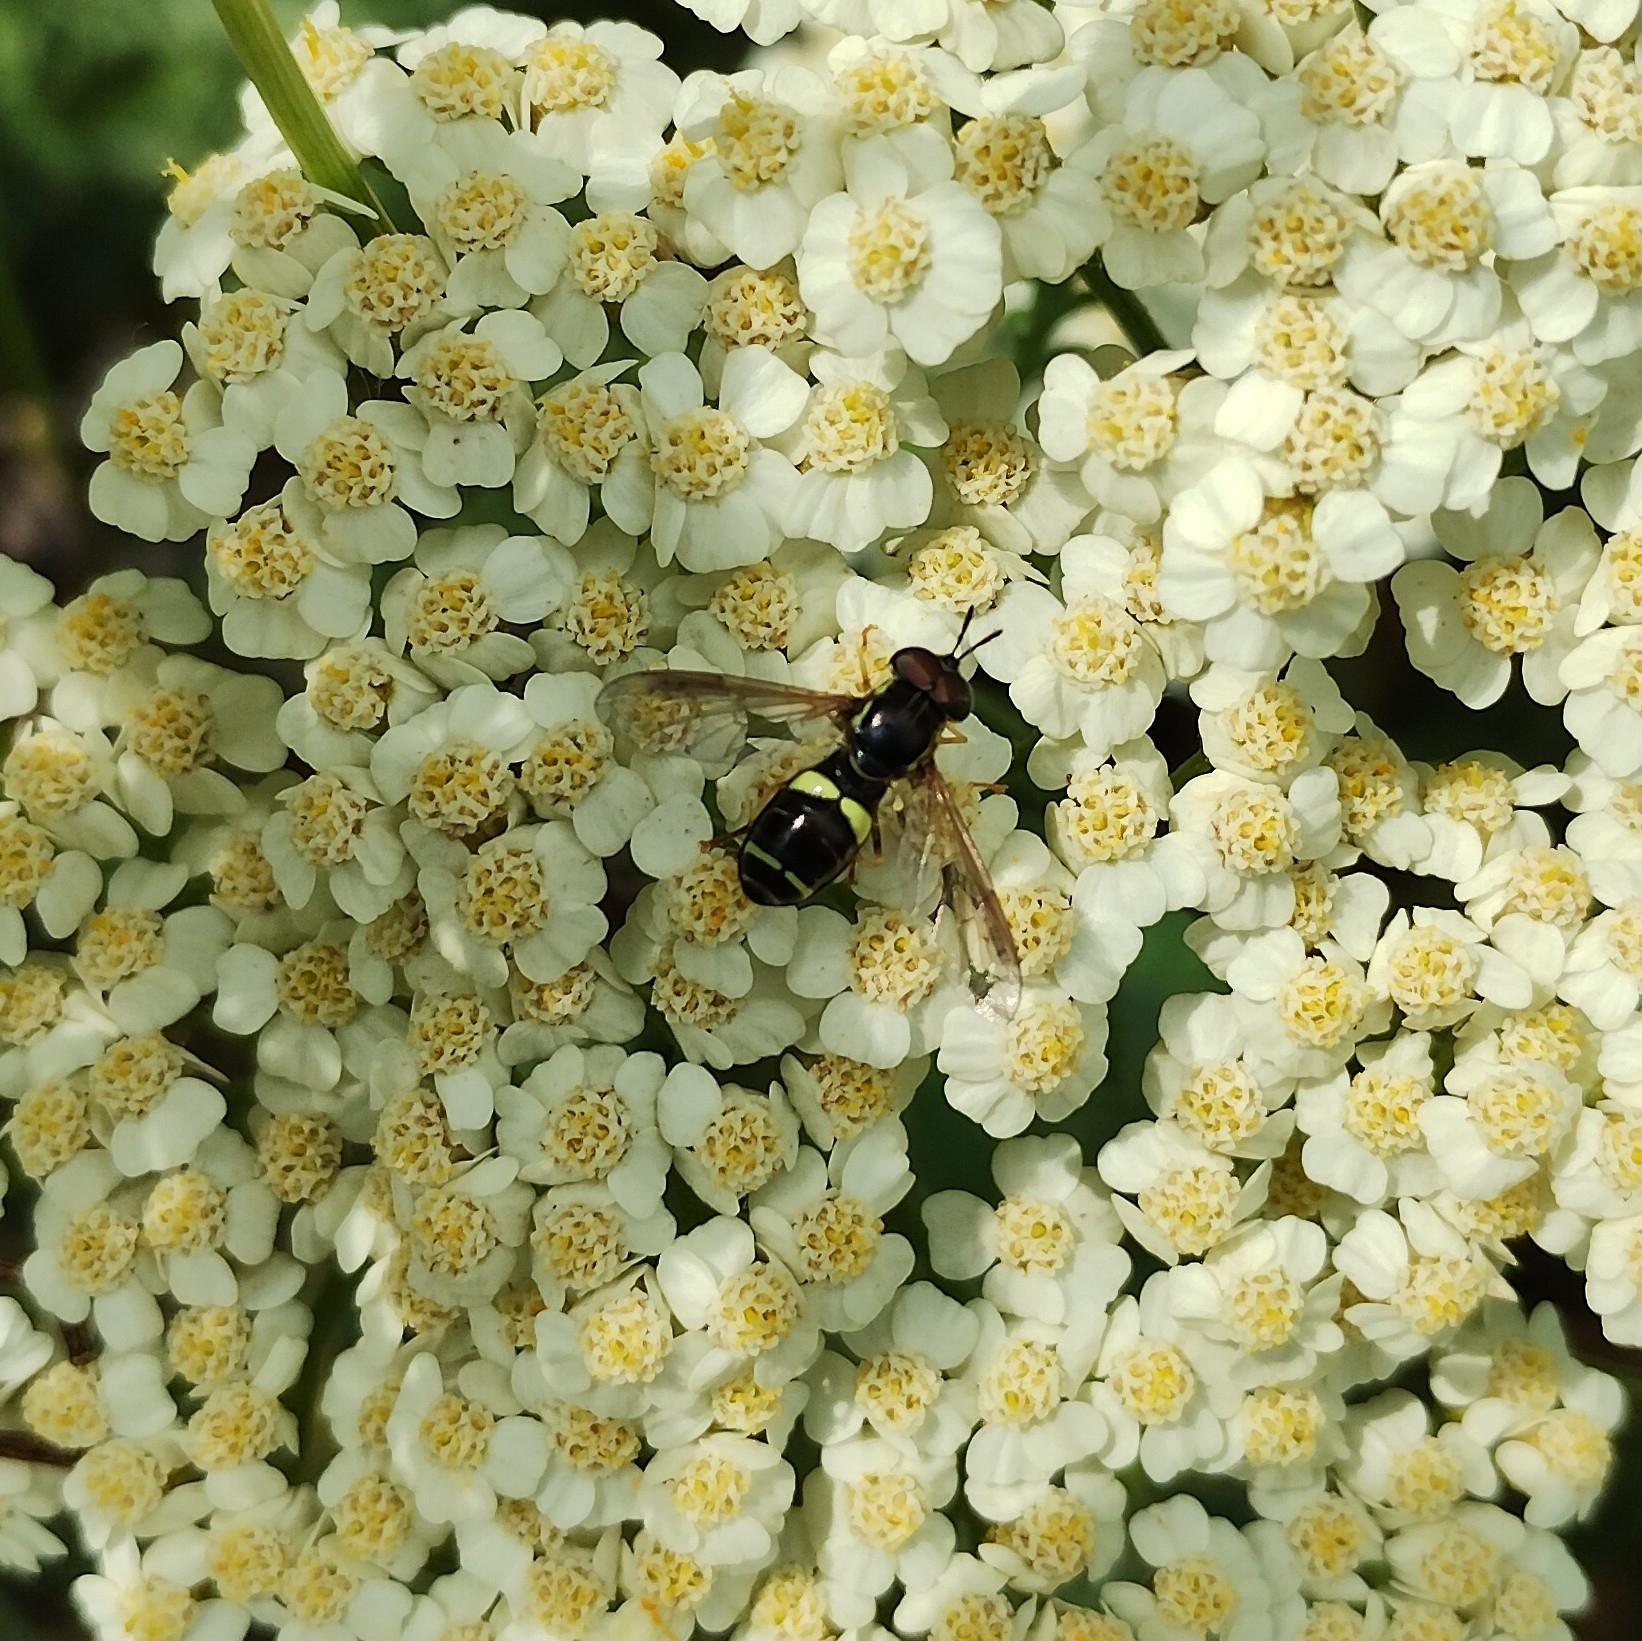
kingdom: Animalia
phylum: Arthropoda
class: Insecta
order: Diptera
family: Syrphidae
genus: Chrysotoxum
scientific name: Chrysotoxum bicincta
